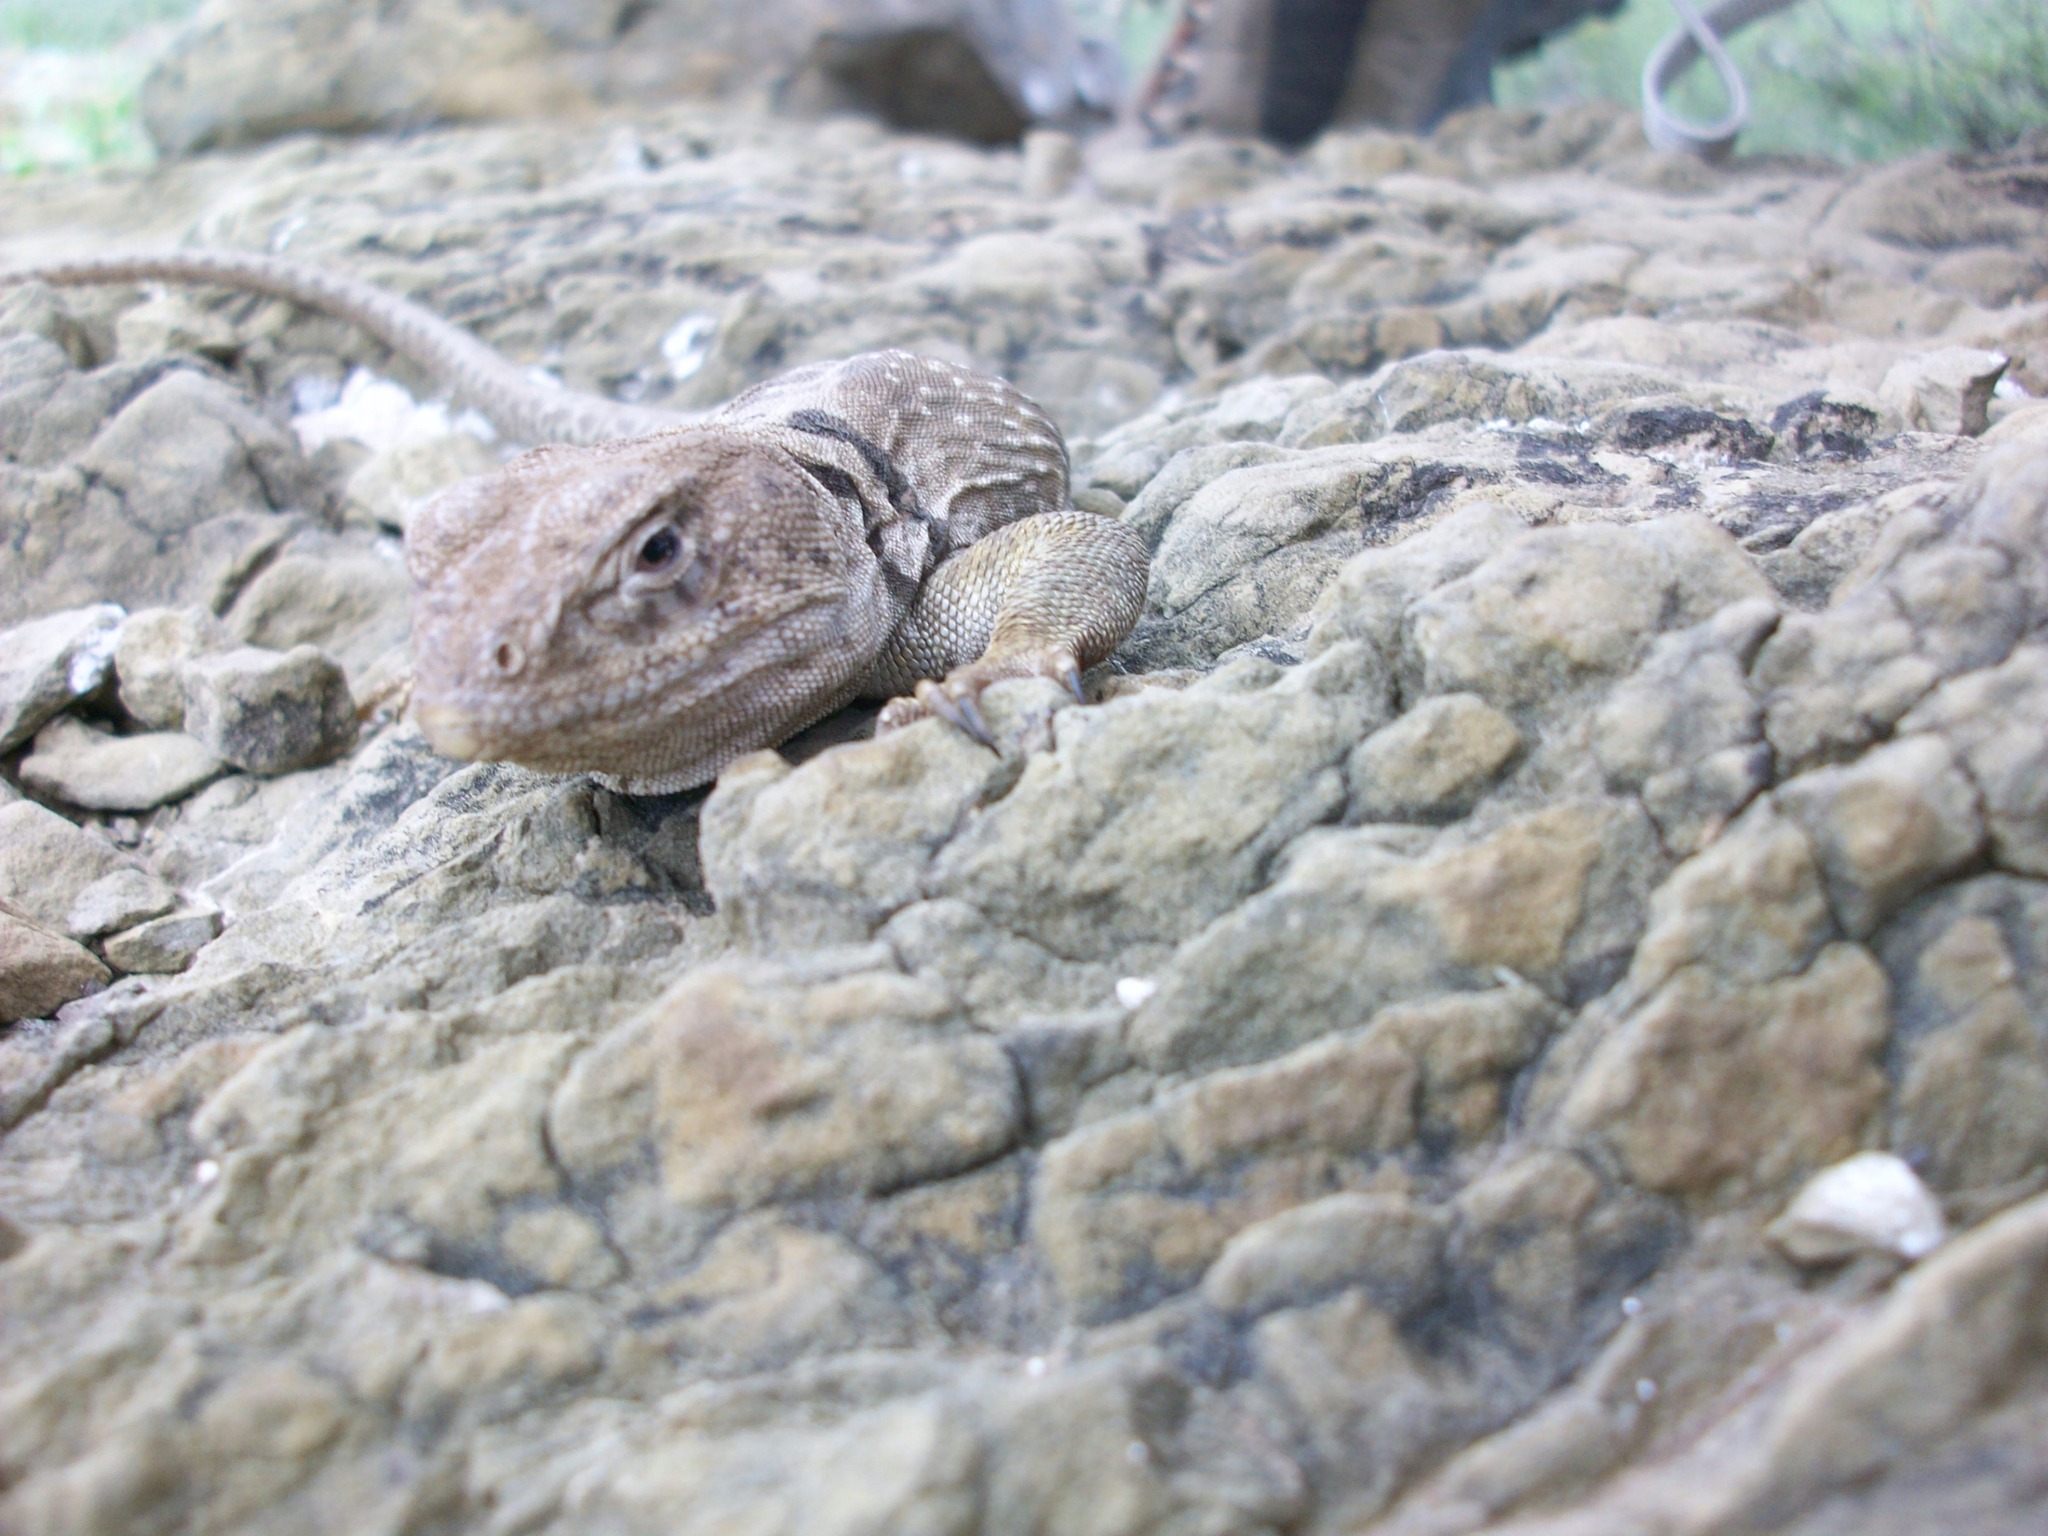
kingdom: Animalia
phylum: Chordata
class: Squamata
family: Crotaphytidae
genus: Crotaphytus
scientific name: Crotaphytus collaris
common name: Collared lizard
